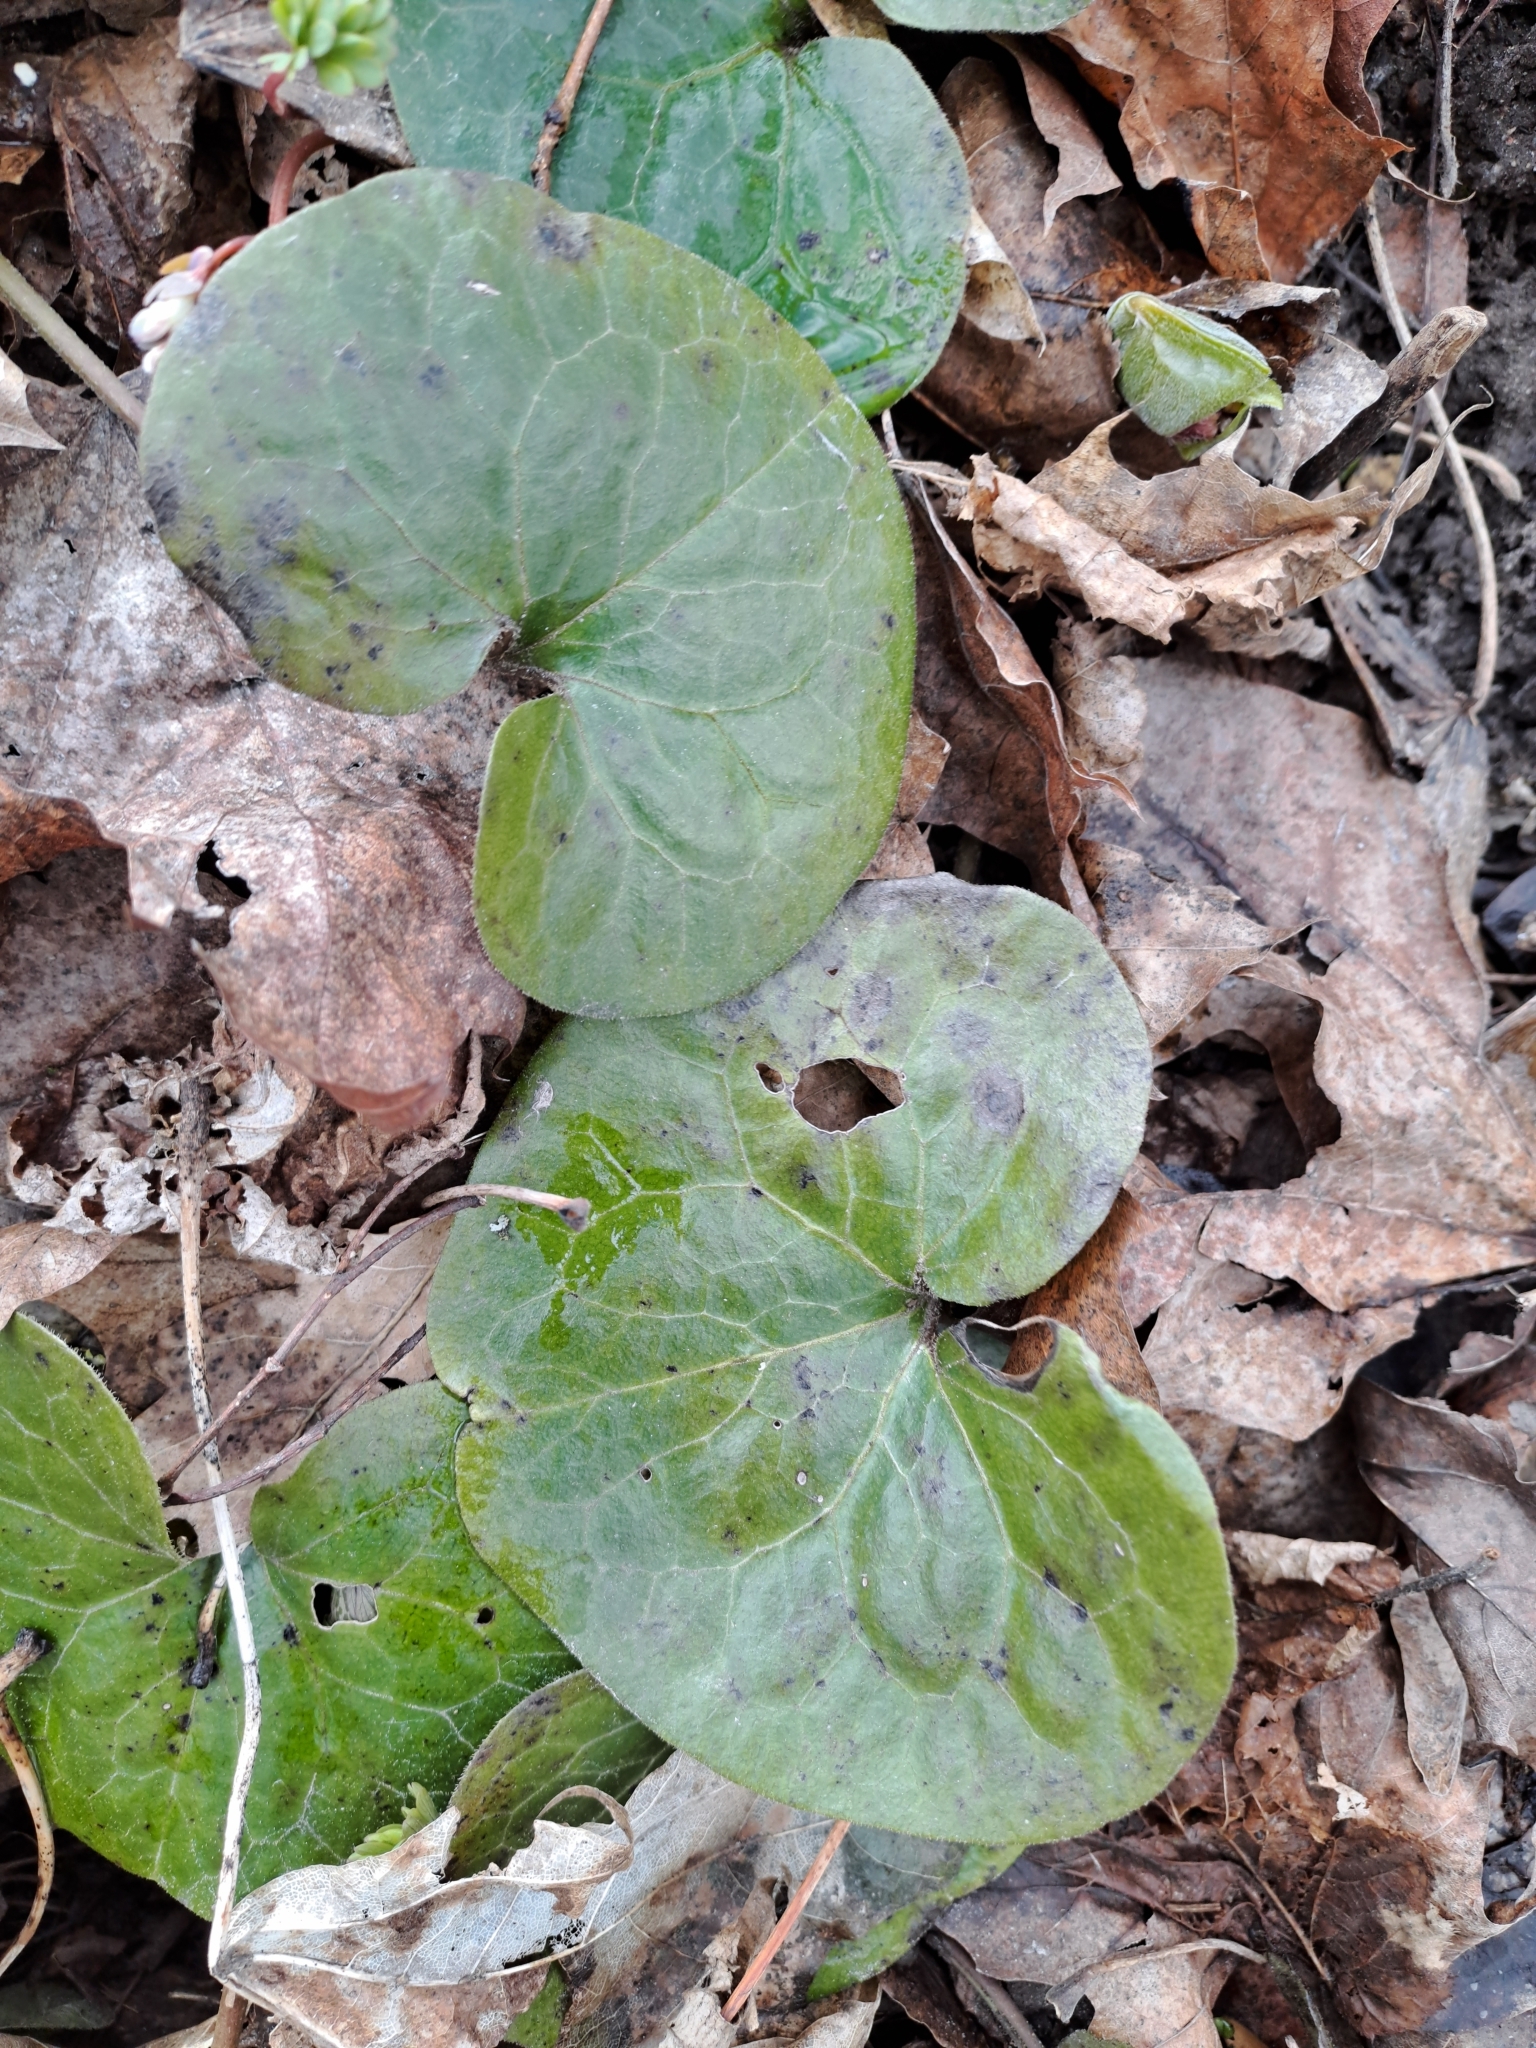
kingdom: Plantae
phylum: Tracheophyta
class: Magnoliopsida
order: Piperales
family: Aristolochiaceae
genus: Asarum
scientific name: Asarum europaeum
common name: Asarabacca
